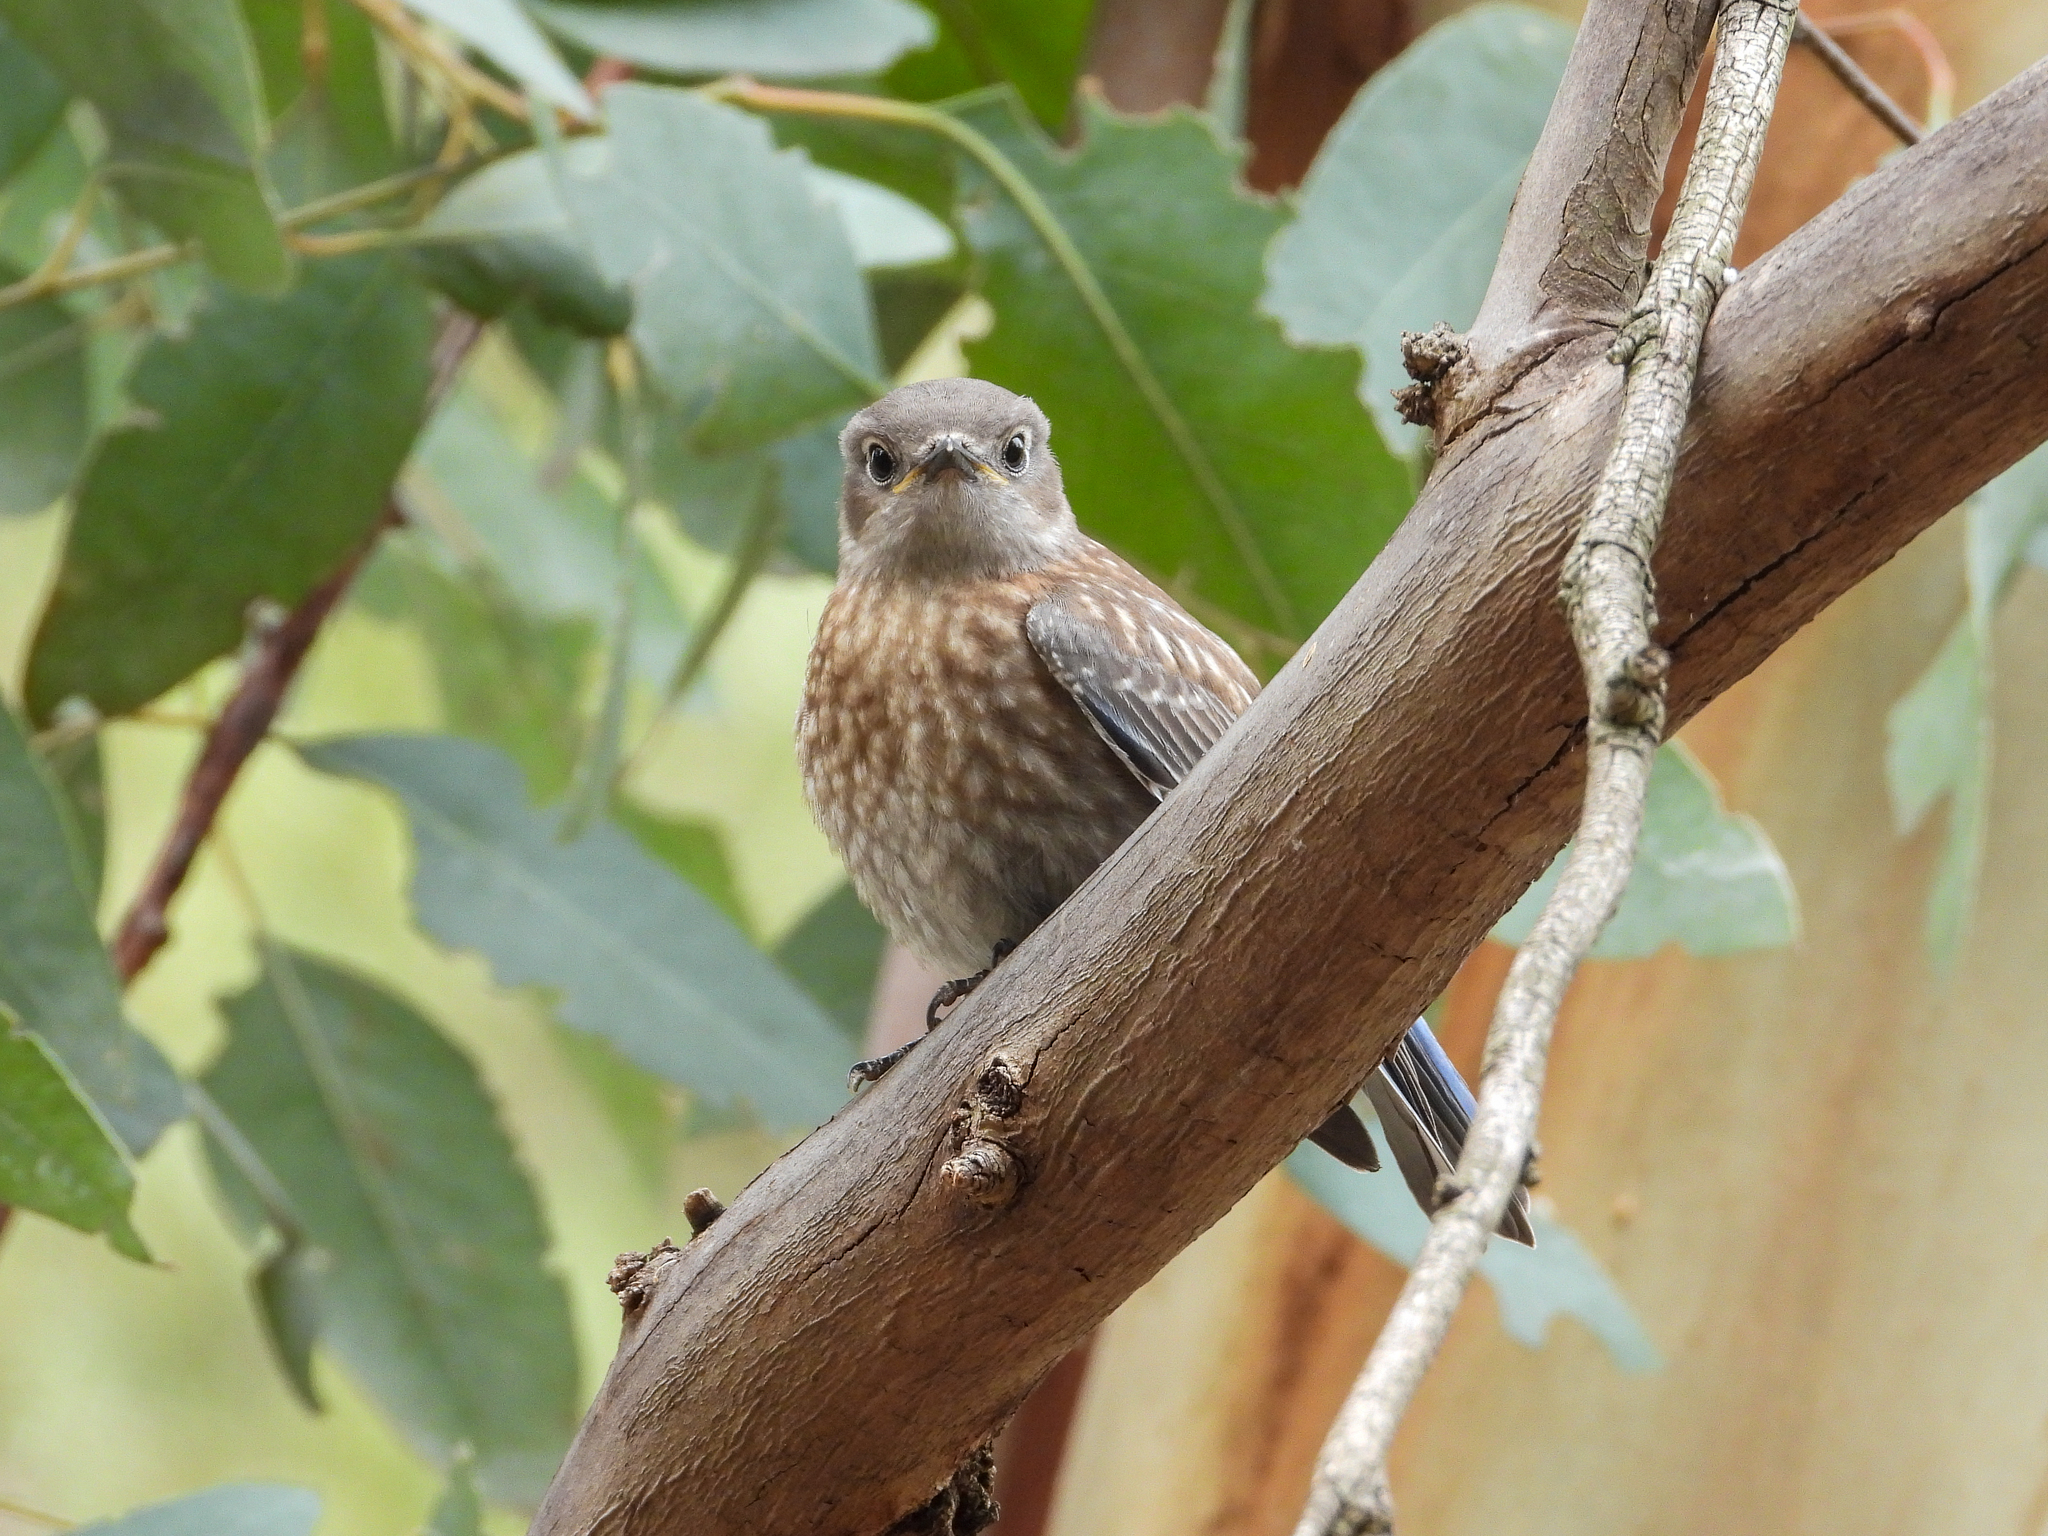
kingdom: Animalia
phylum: Chordata
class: Aves
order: Passeriformes
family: Turdidae
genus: Sialia
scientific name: Sialia mexicana
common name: Western bluebird
